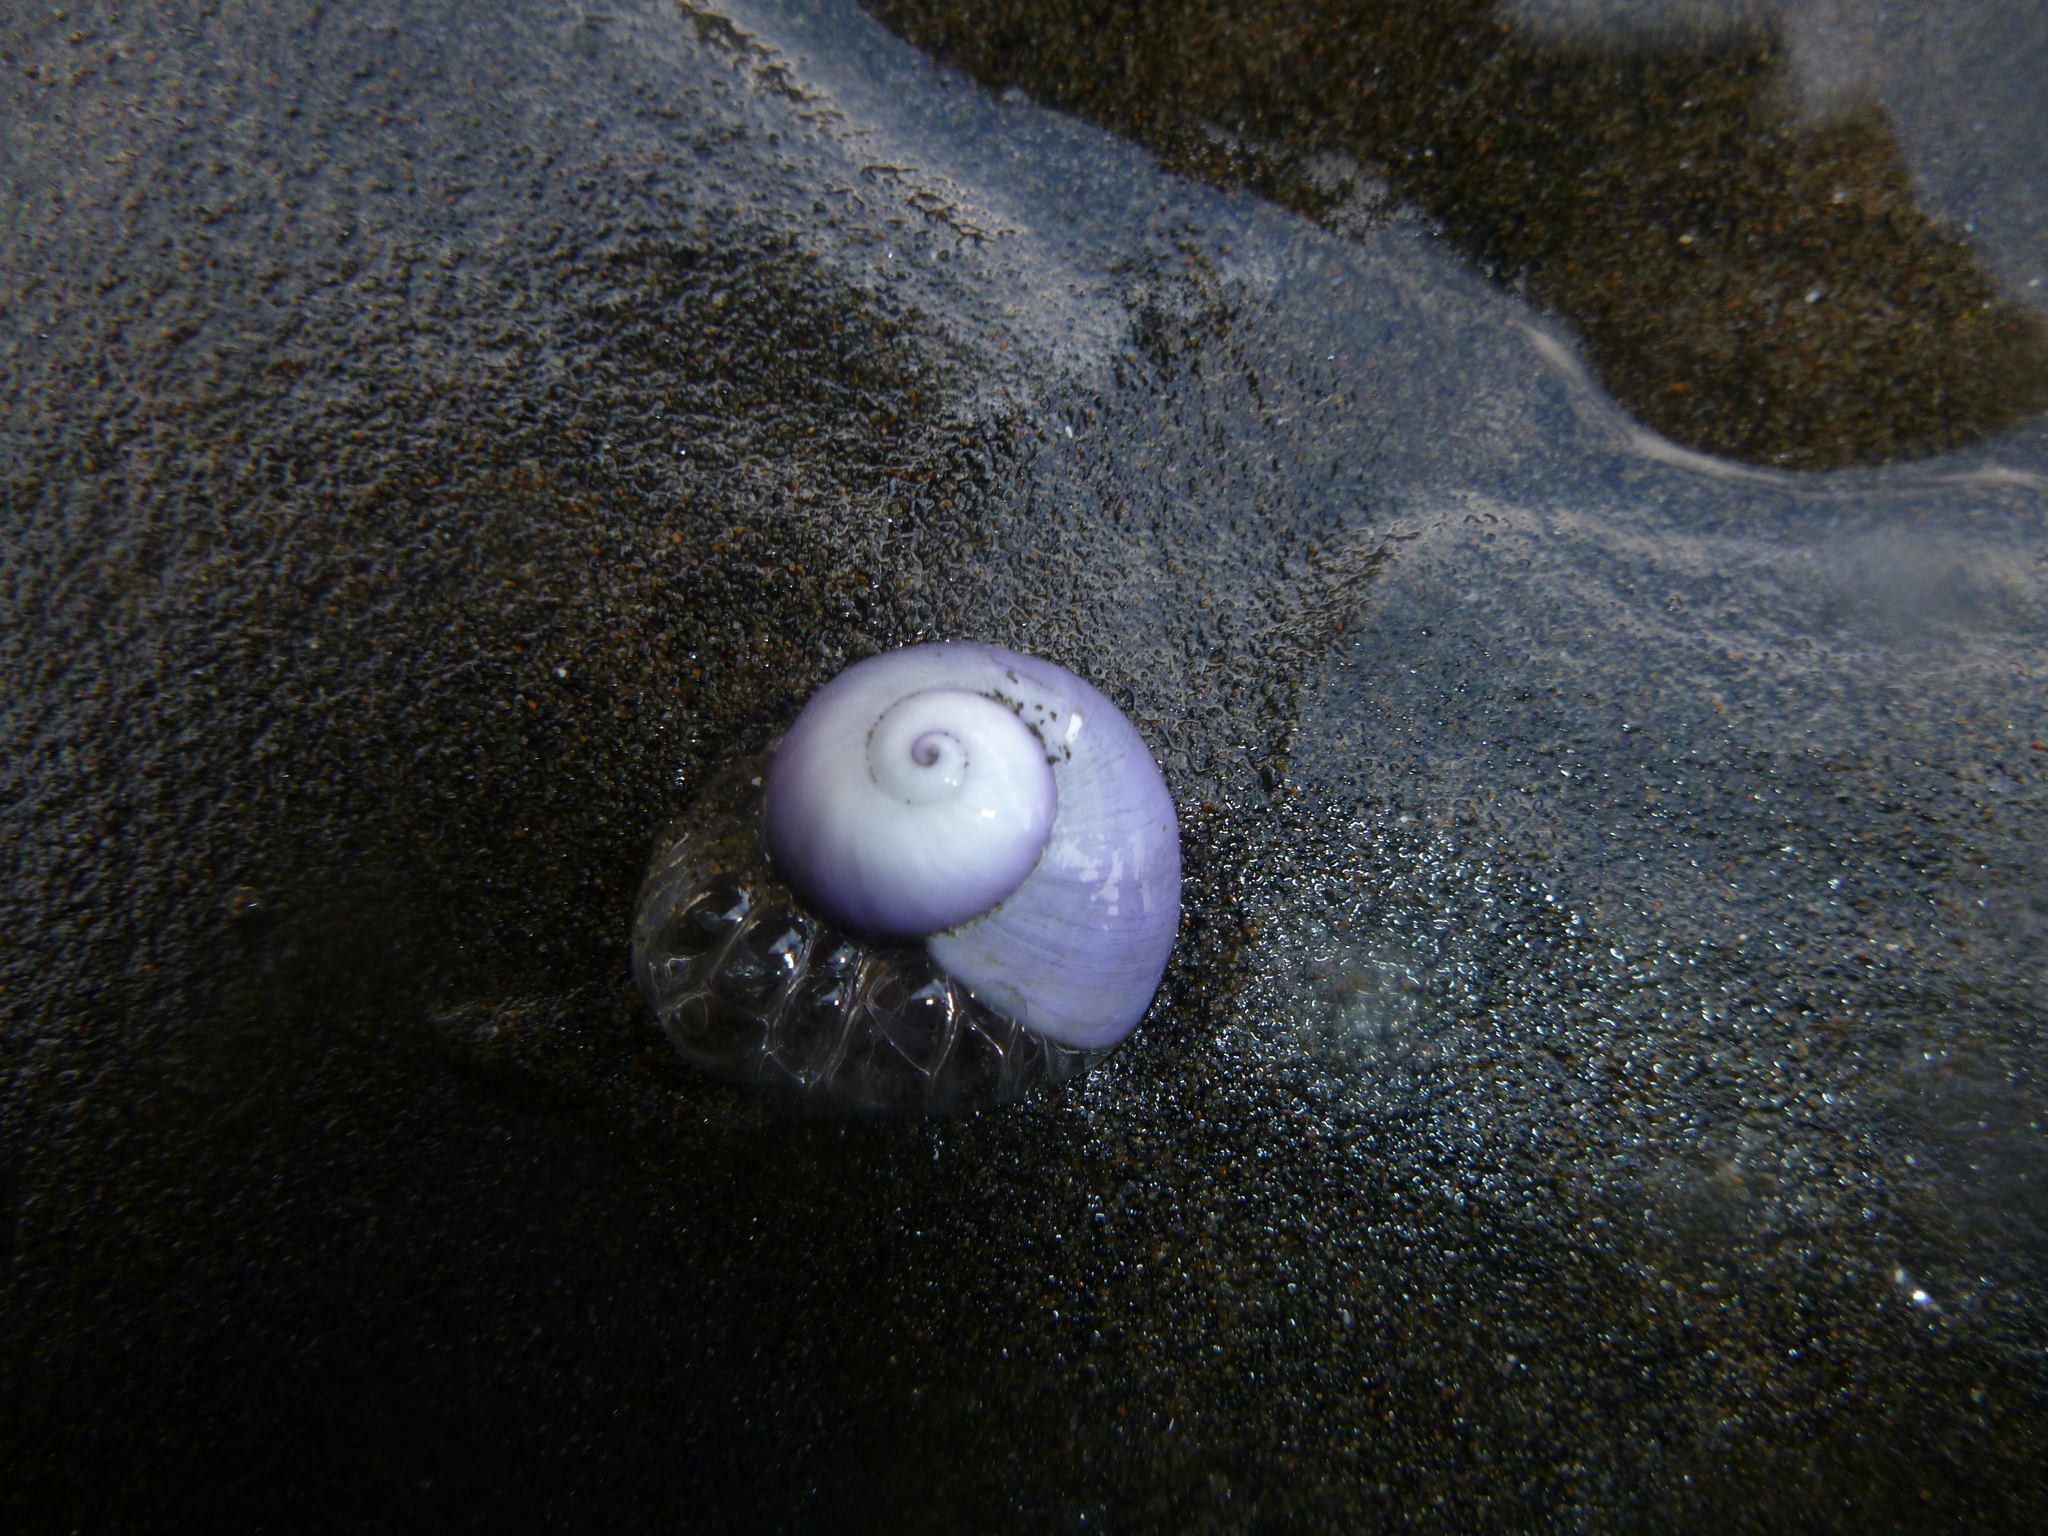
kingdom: Animalia
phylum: Mollusca
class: Gastropoda
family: Epitoniidae
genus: Janthina
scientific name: Janthina janthina
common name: Common janthina
